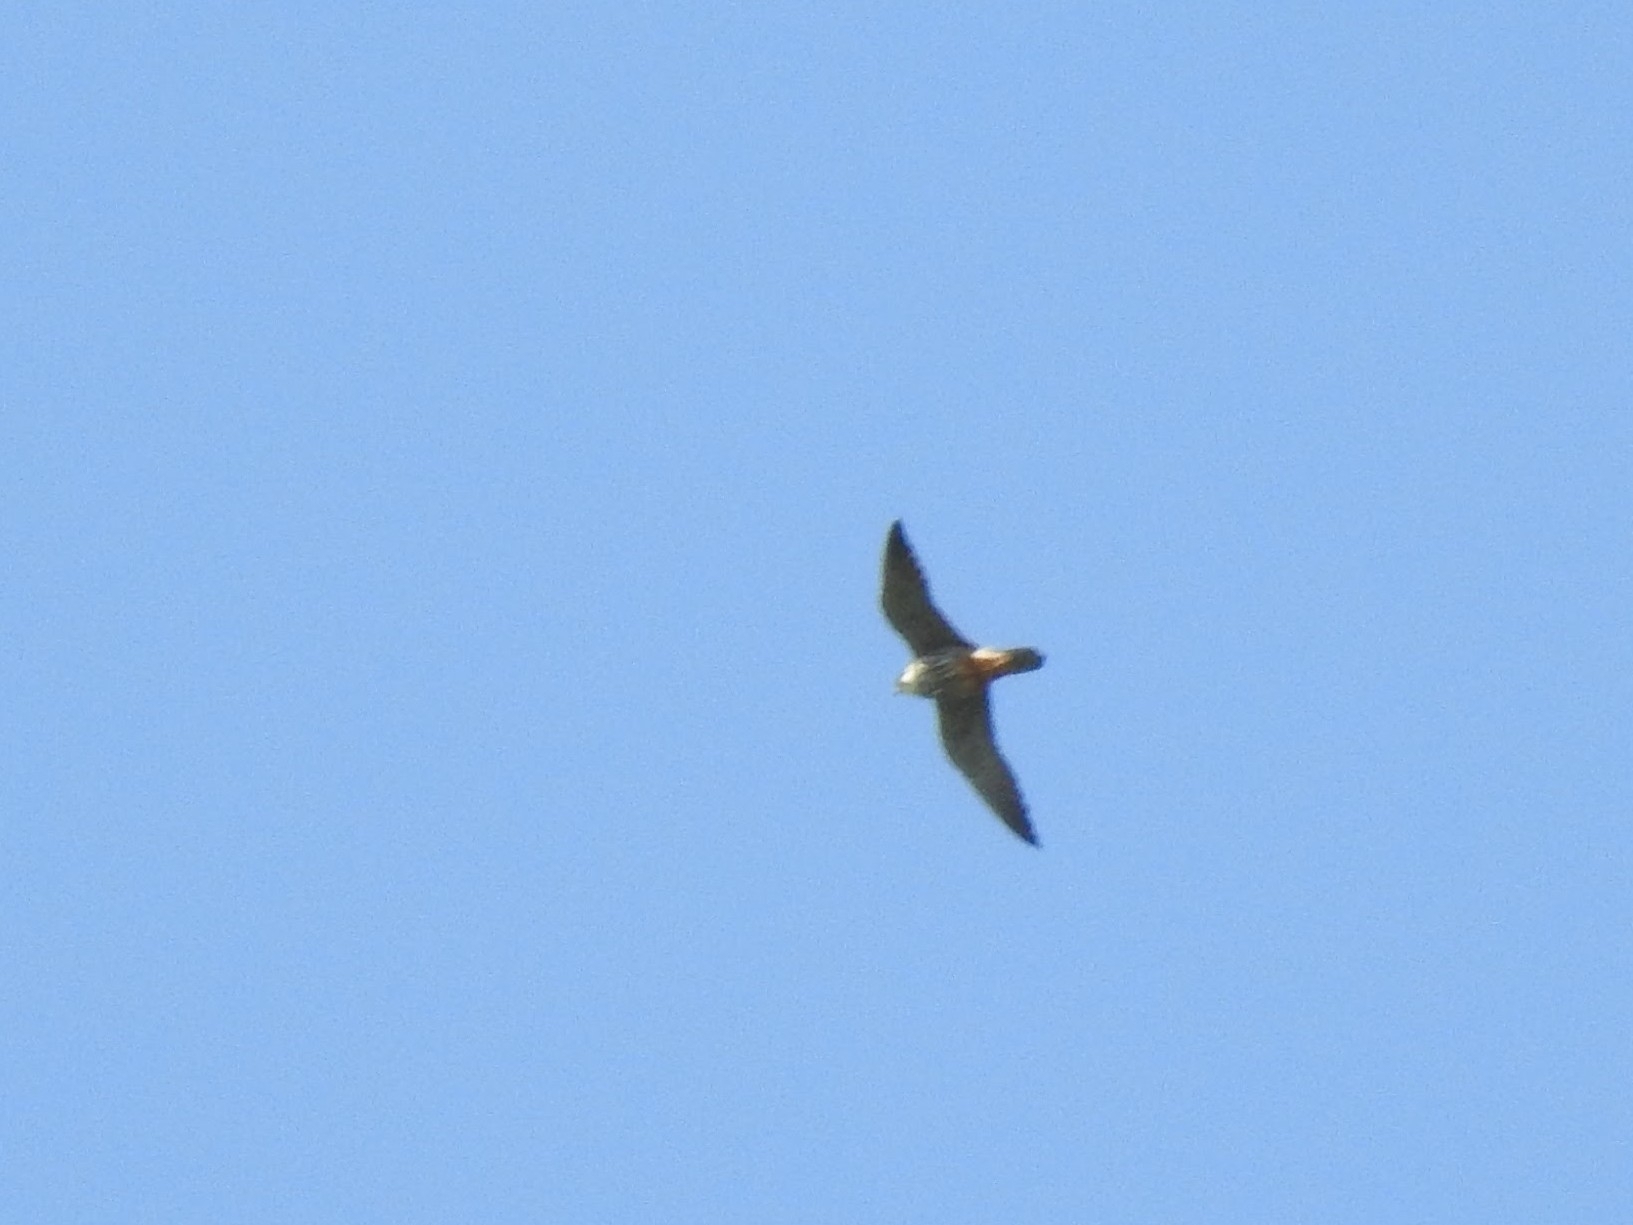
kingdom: Animalia
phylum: Chordata
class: Aves
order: Falconiformes
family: Falconidae
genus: Falco
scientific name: Falco subbuteo
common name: Eurasian hobby
